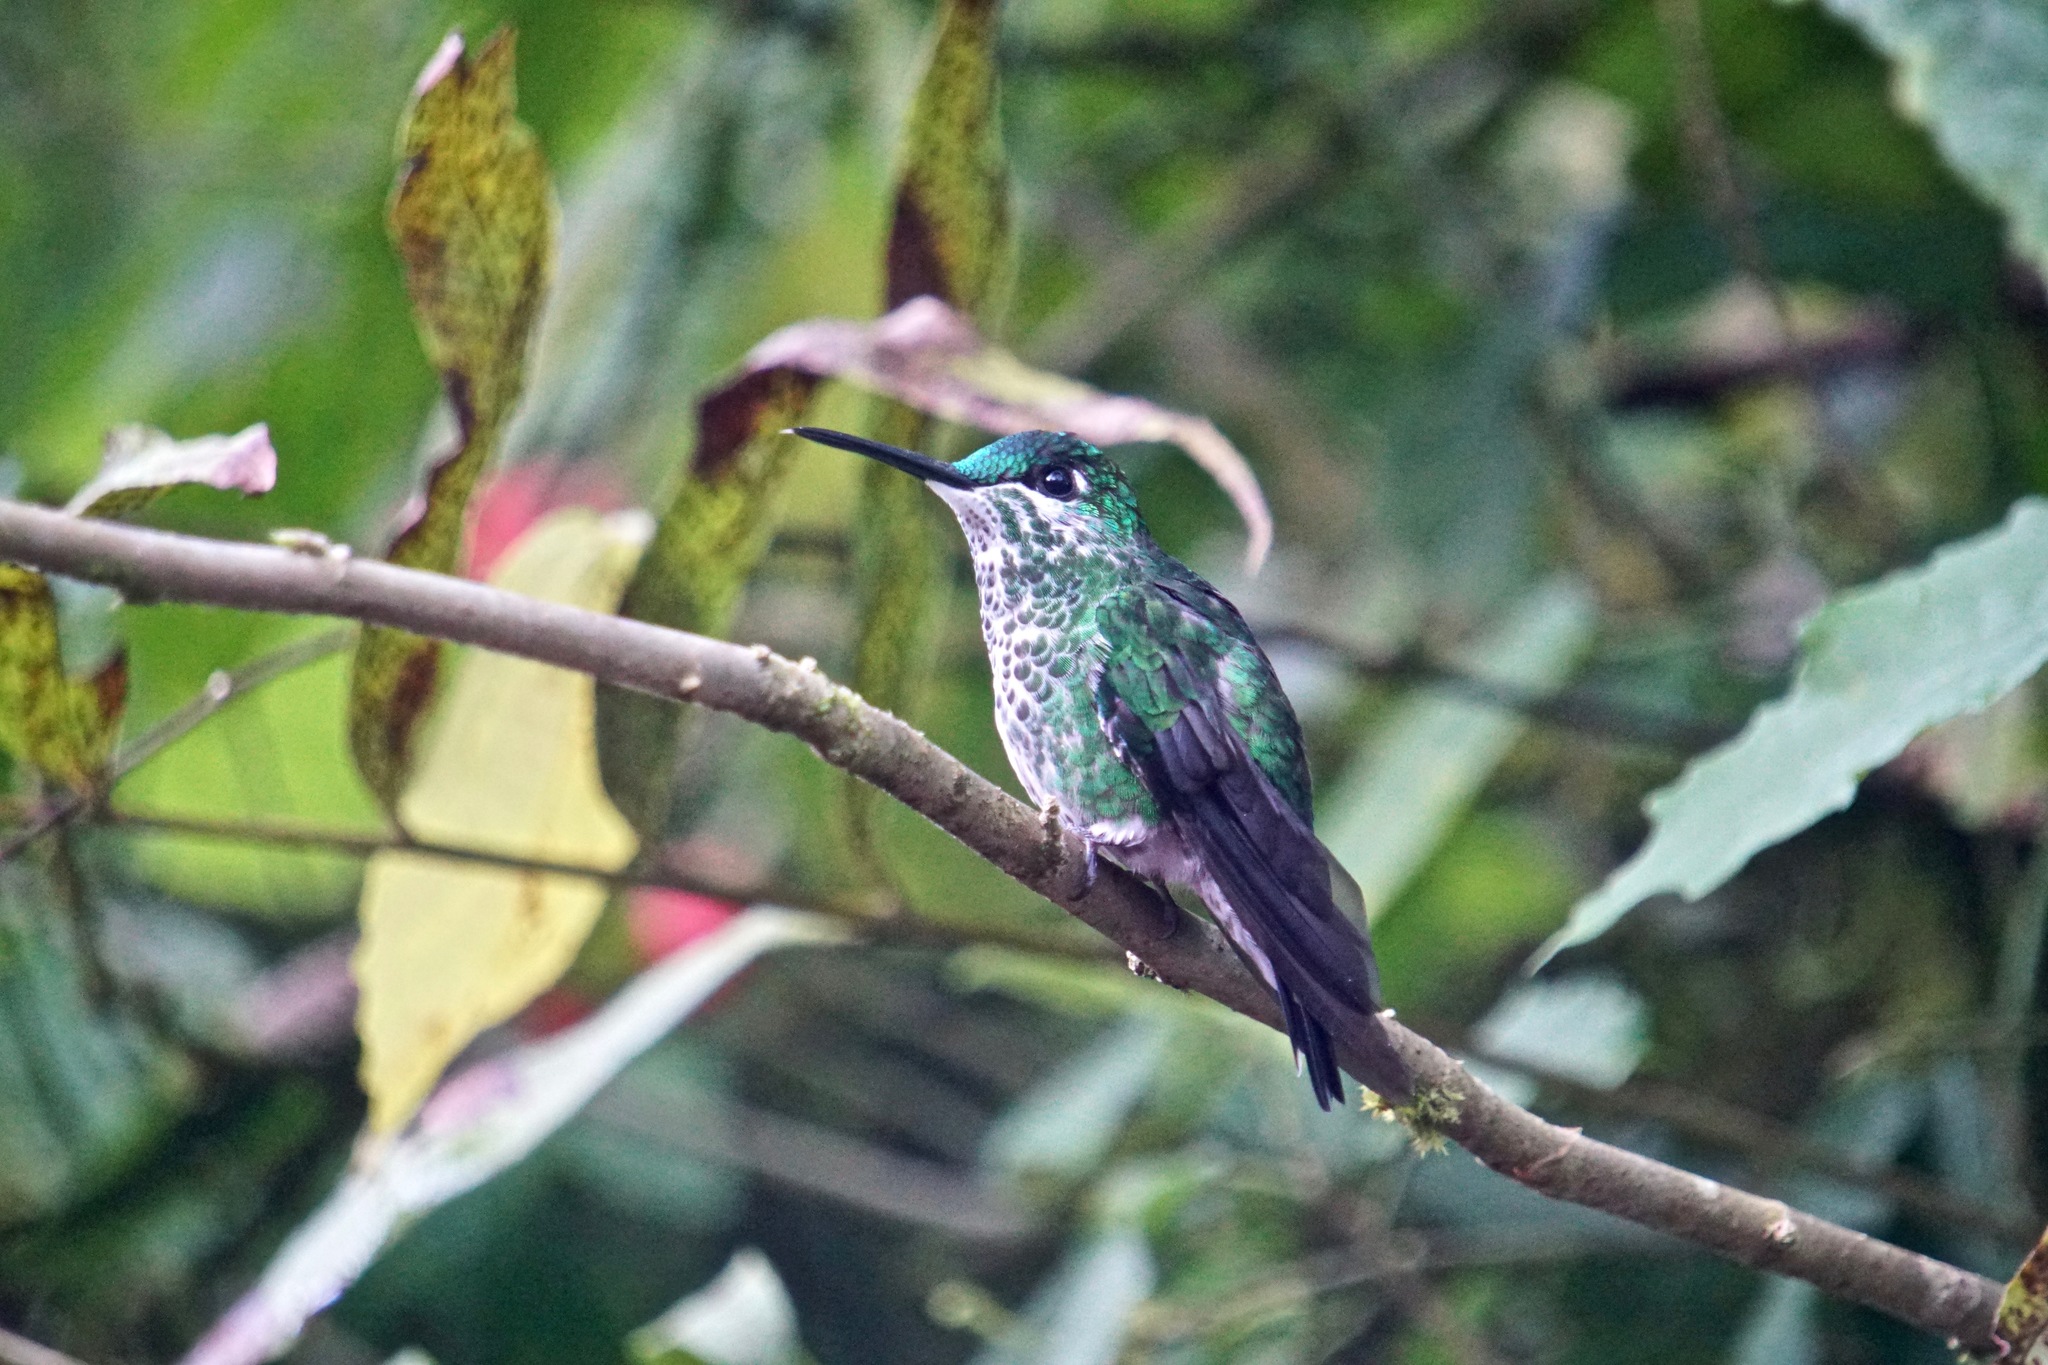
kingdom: Animalia
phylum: Chordata
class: Aves
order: Apodiformes
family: Trochilidae
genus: Heliodoxa
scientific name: Heliodoxa jacula
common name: Green-crowned brilliant
